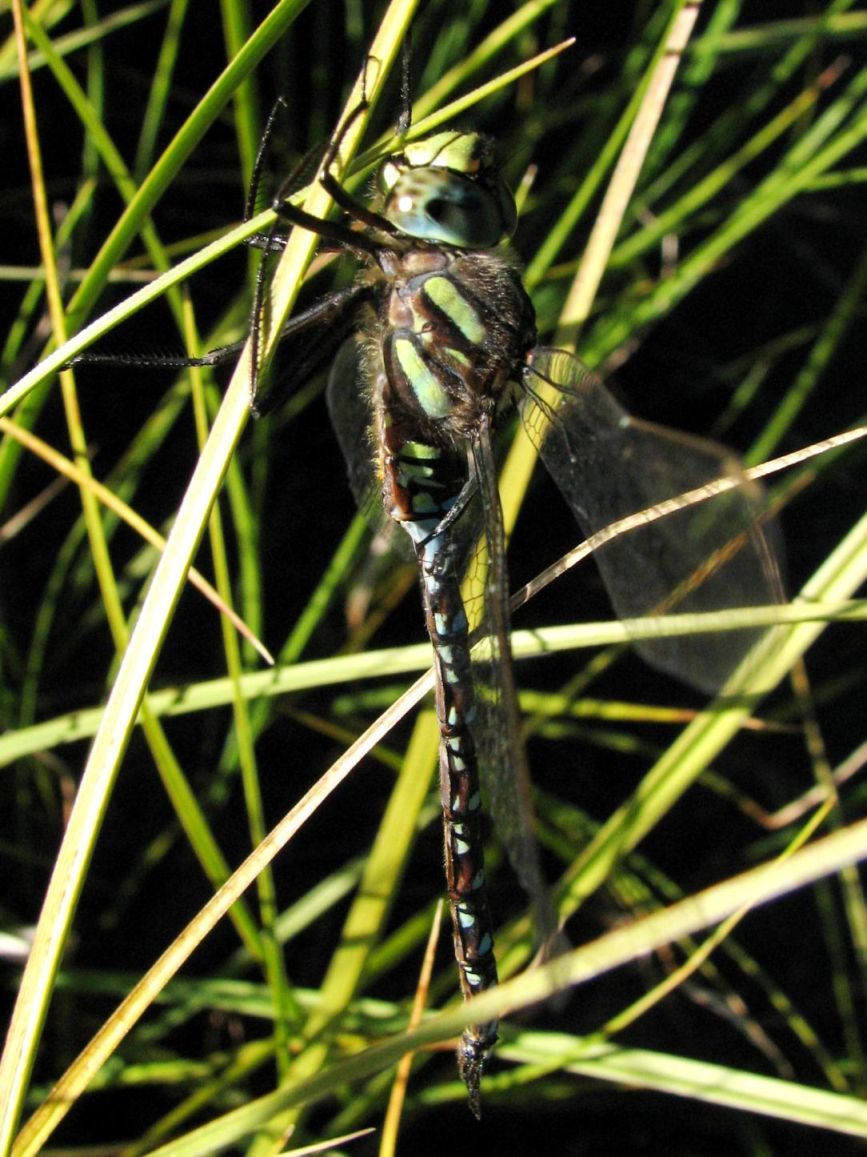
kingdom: Animalia
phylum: Arthropoda
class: Insecta
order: Odonata
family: Aeshnidae
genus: Aeshna
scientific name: Aeshna juncea
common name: Moorland hawker
